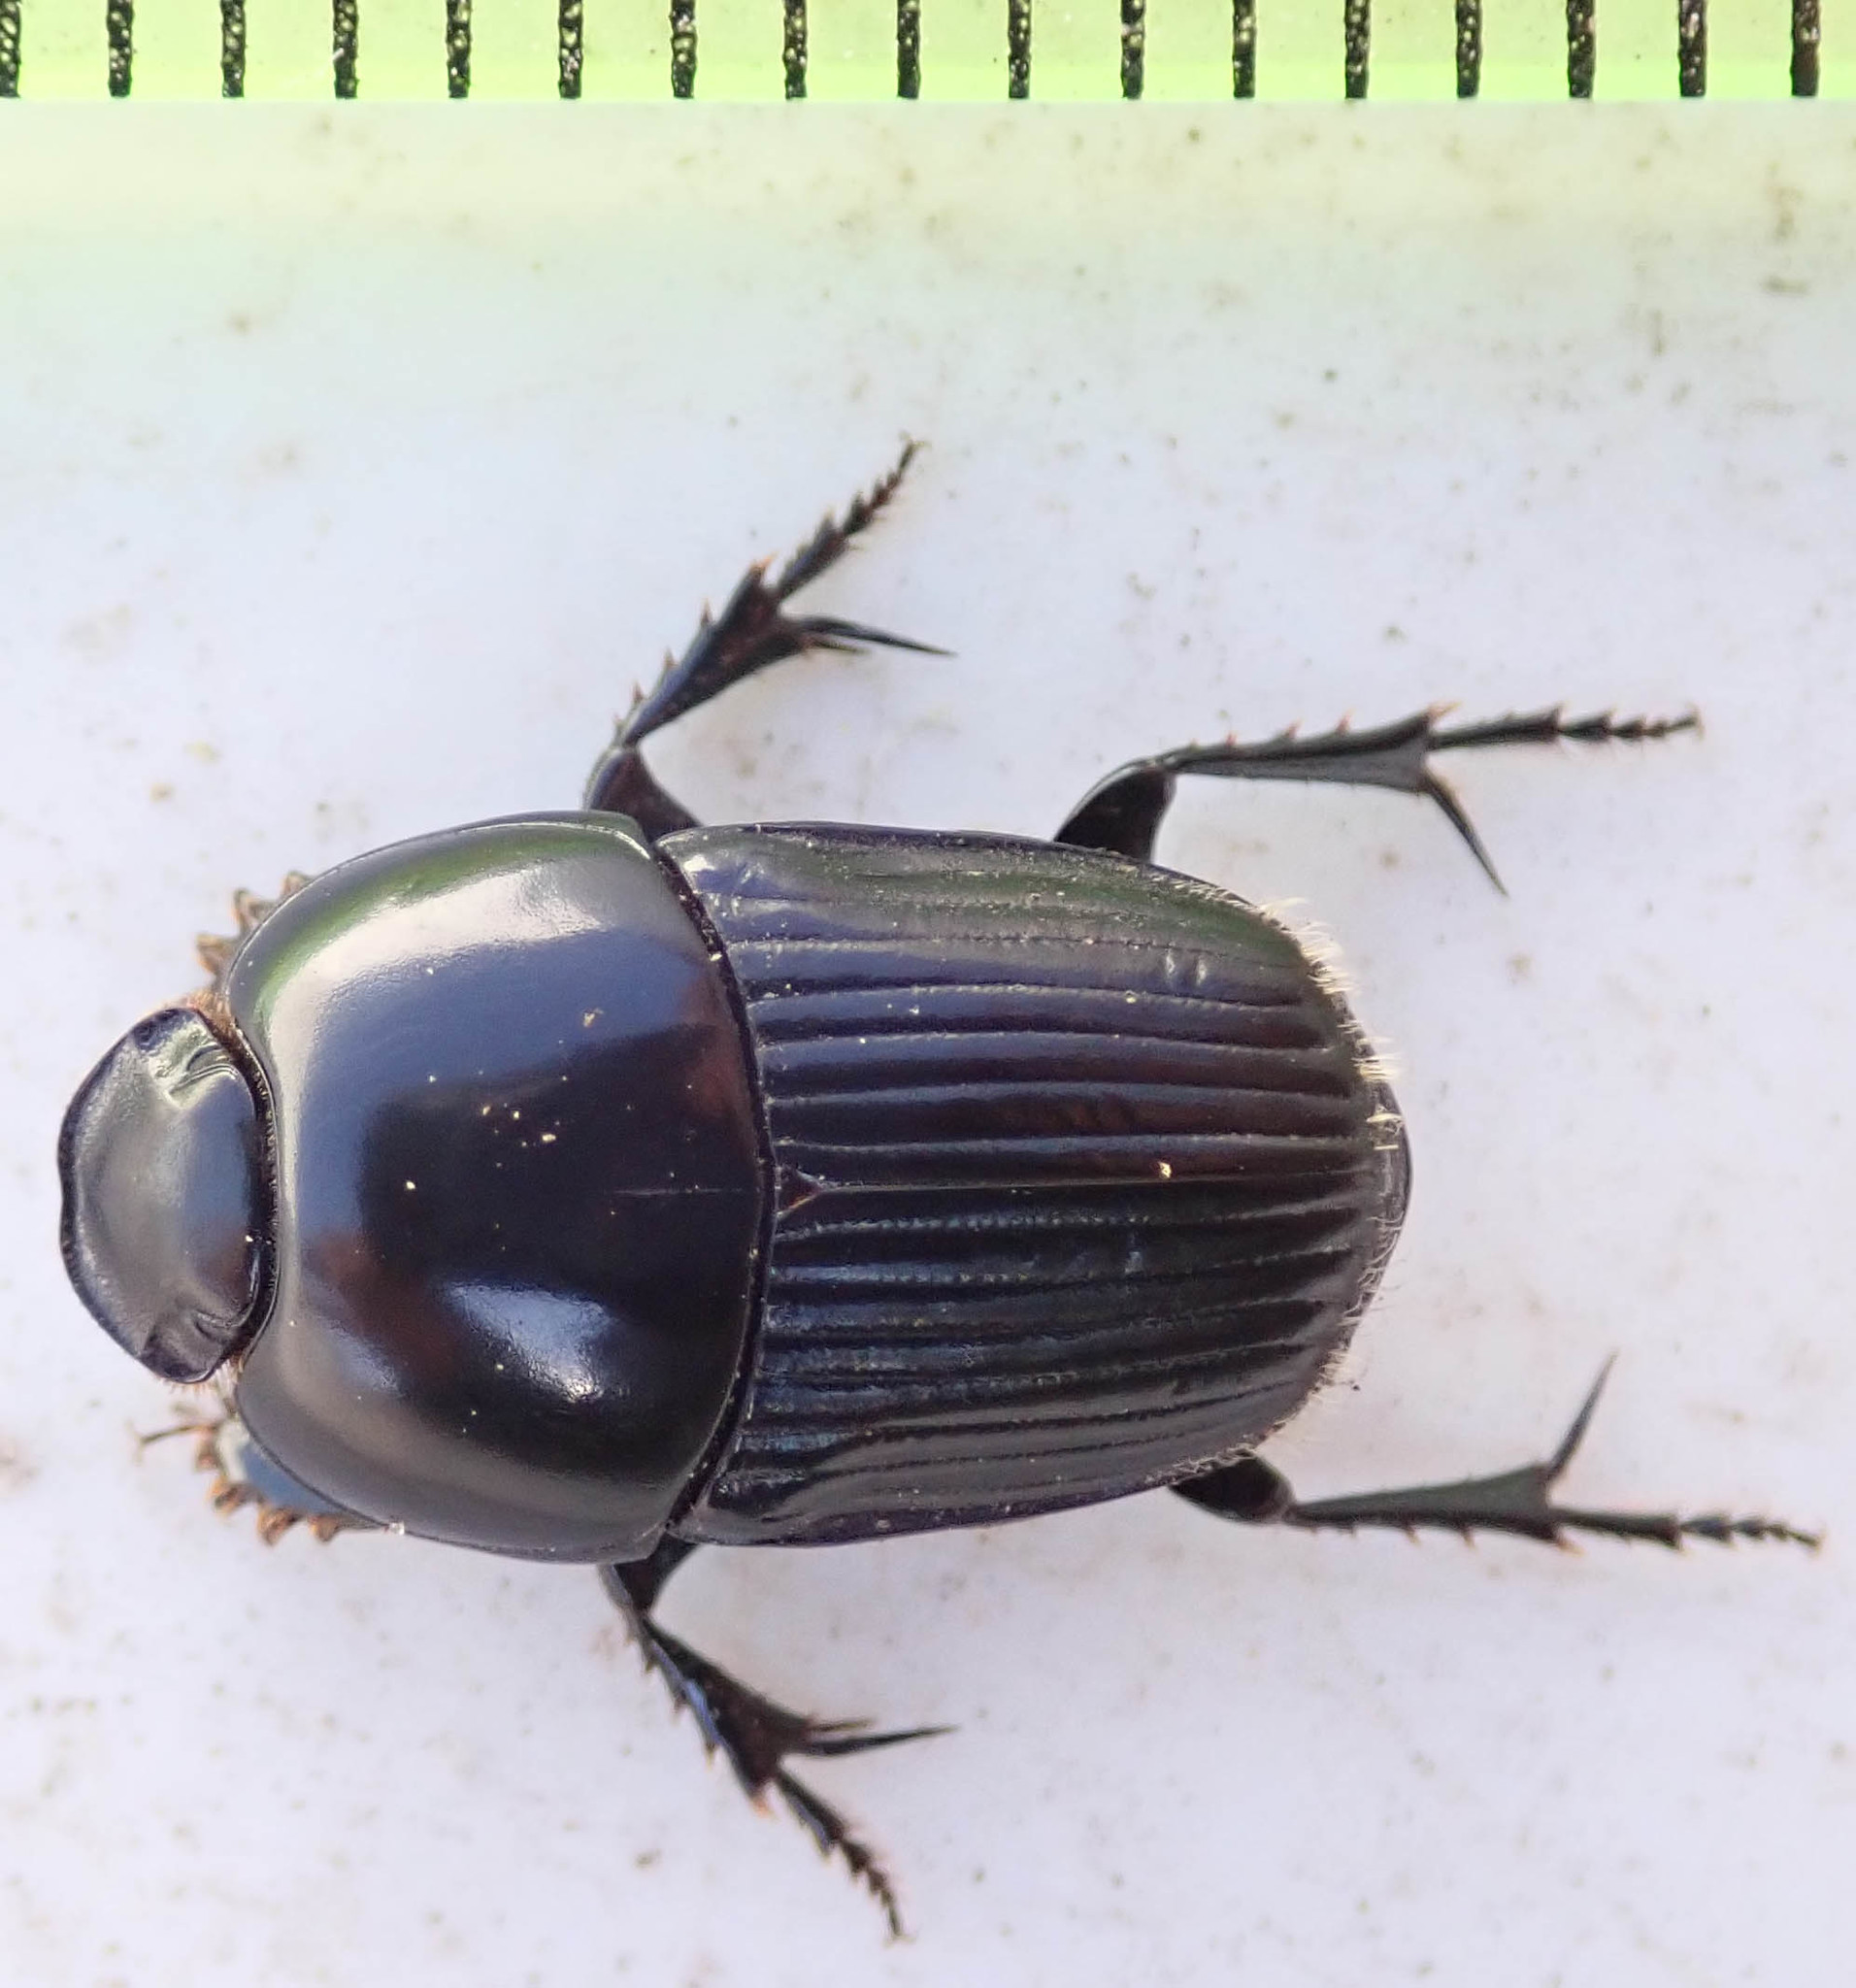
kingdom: Animalia
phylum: Arthropoda
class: Insecta
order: Coleoptera
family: Scarabaeidae
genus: Oniticellus
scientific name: Oniticellus planatus
